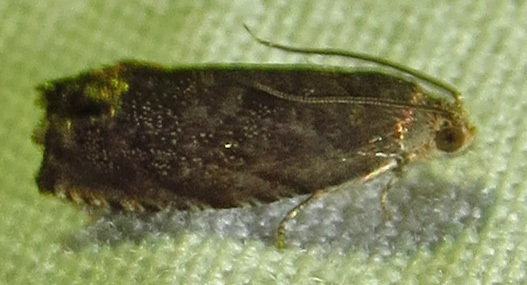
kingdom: Animalia
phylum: Arthropoda
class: Insecta
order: Lepidoptera
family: Tortricidae
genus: Cydia
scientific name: Cydia caryana
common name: Hickory shuckworm moth
